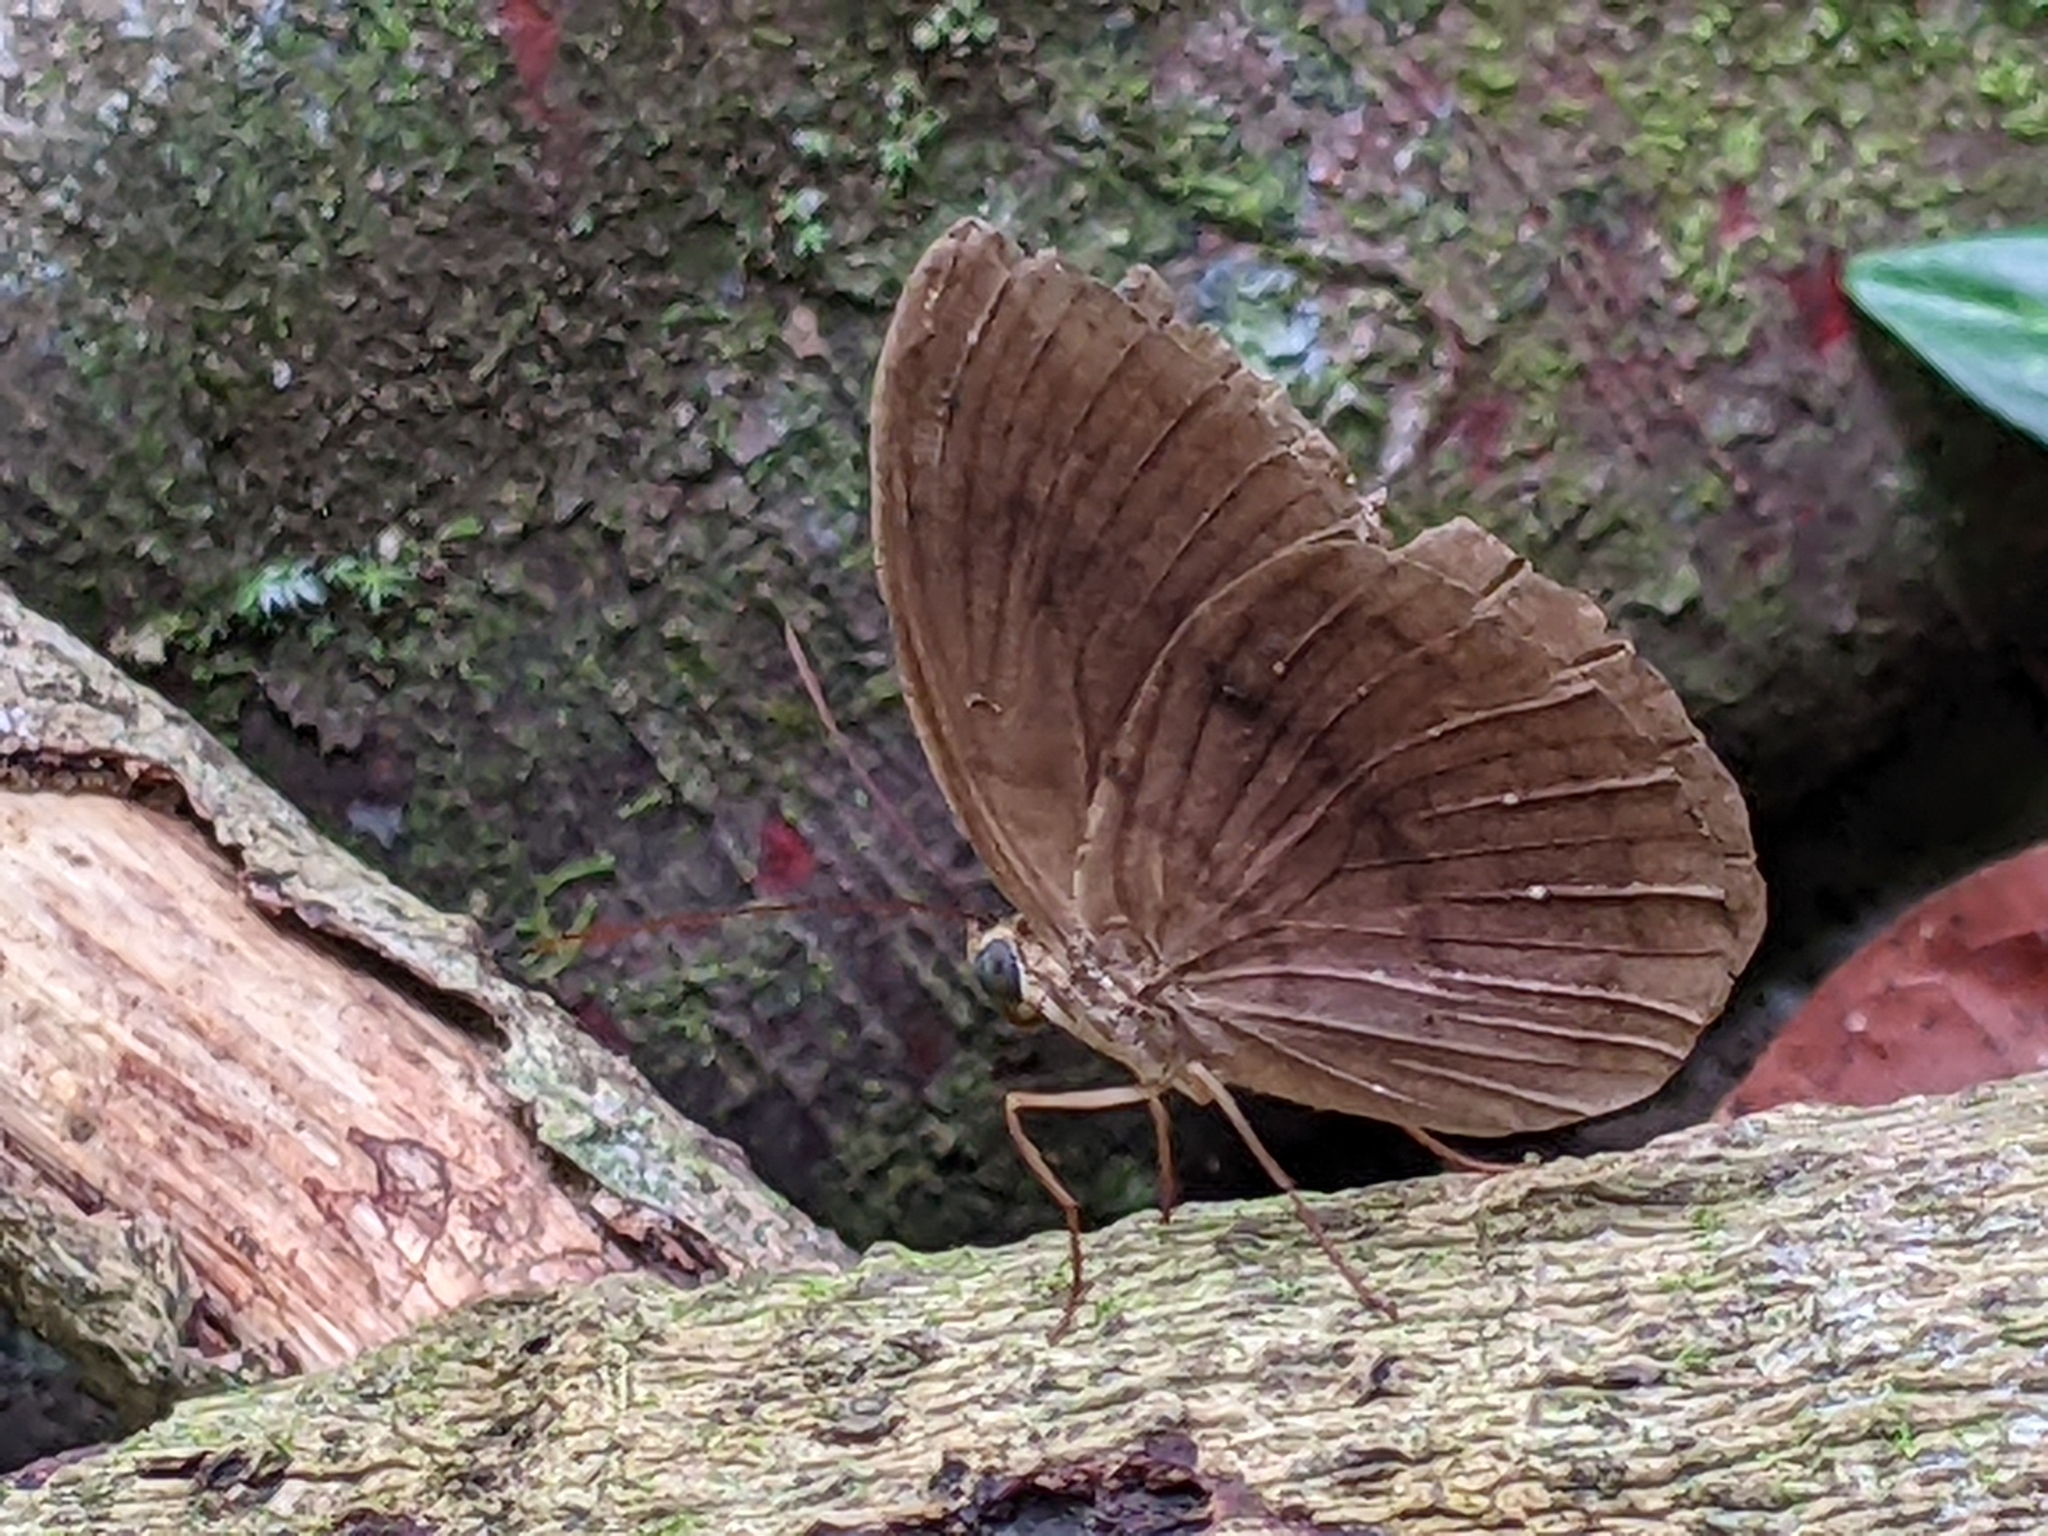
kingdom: Animalia
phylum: Arthropoda
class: Insecta
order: Lepidoptera
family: Nymphalidae
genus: Faunis
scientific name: Faunis canens
